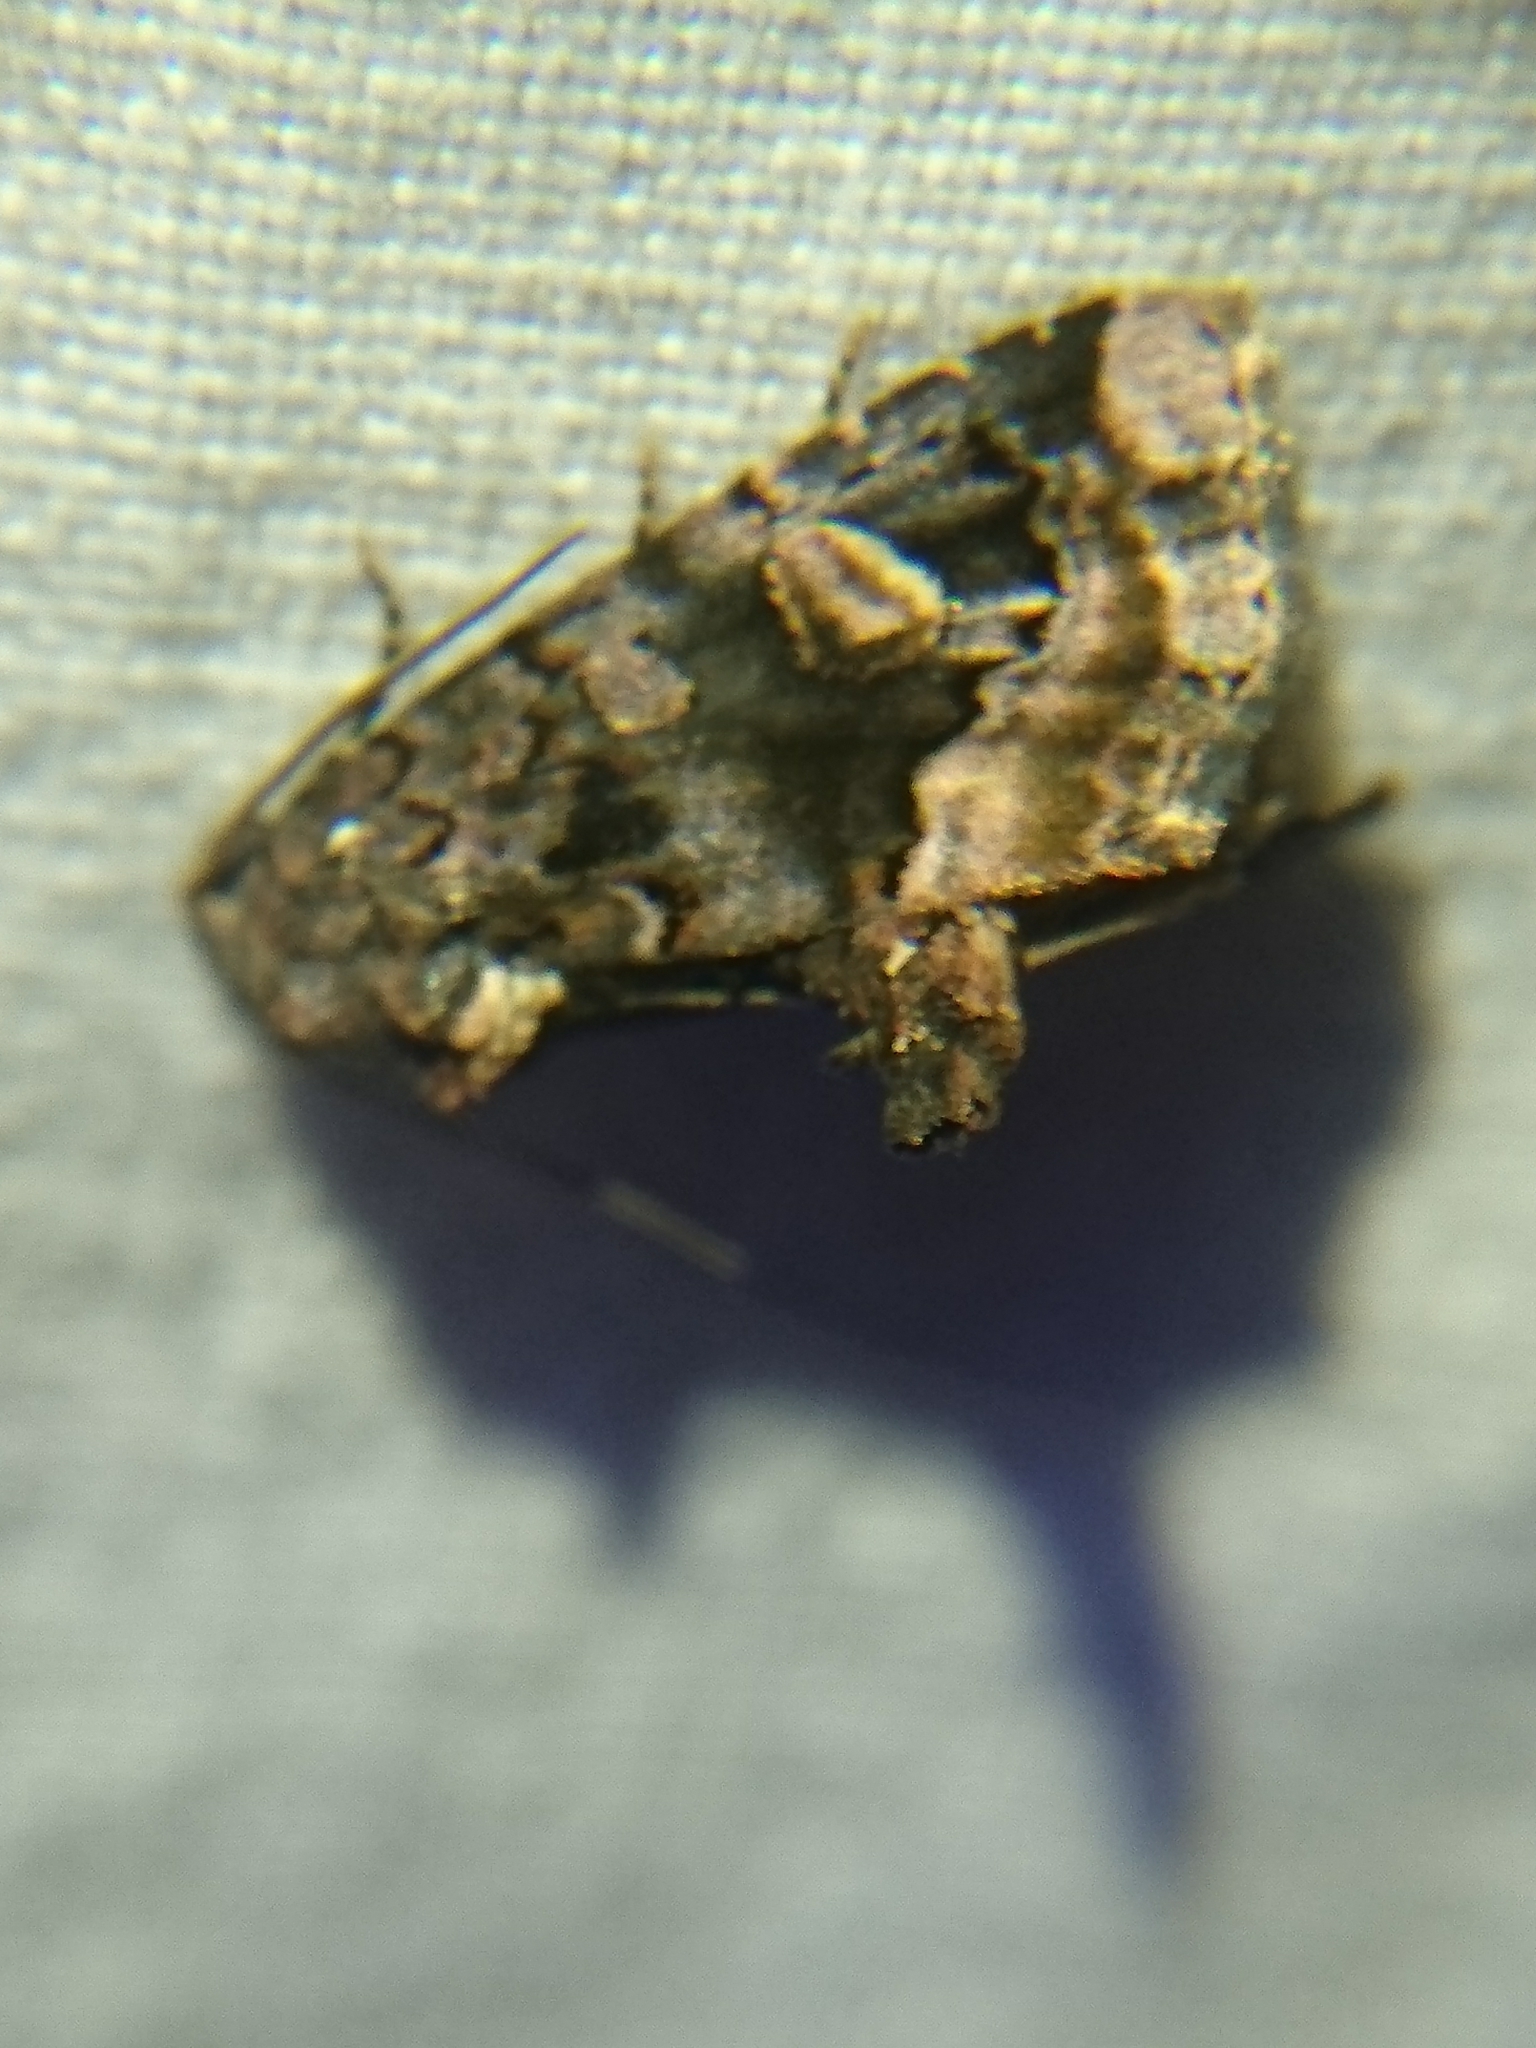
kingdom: Animalia
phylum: Arthropoda
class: Insecta
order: Lepidoptera
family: Noctuidae
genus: Homophoberia
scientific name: Homophoberia apicosa
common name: Black wedge-spot
